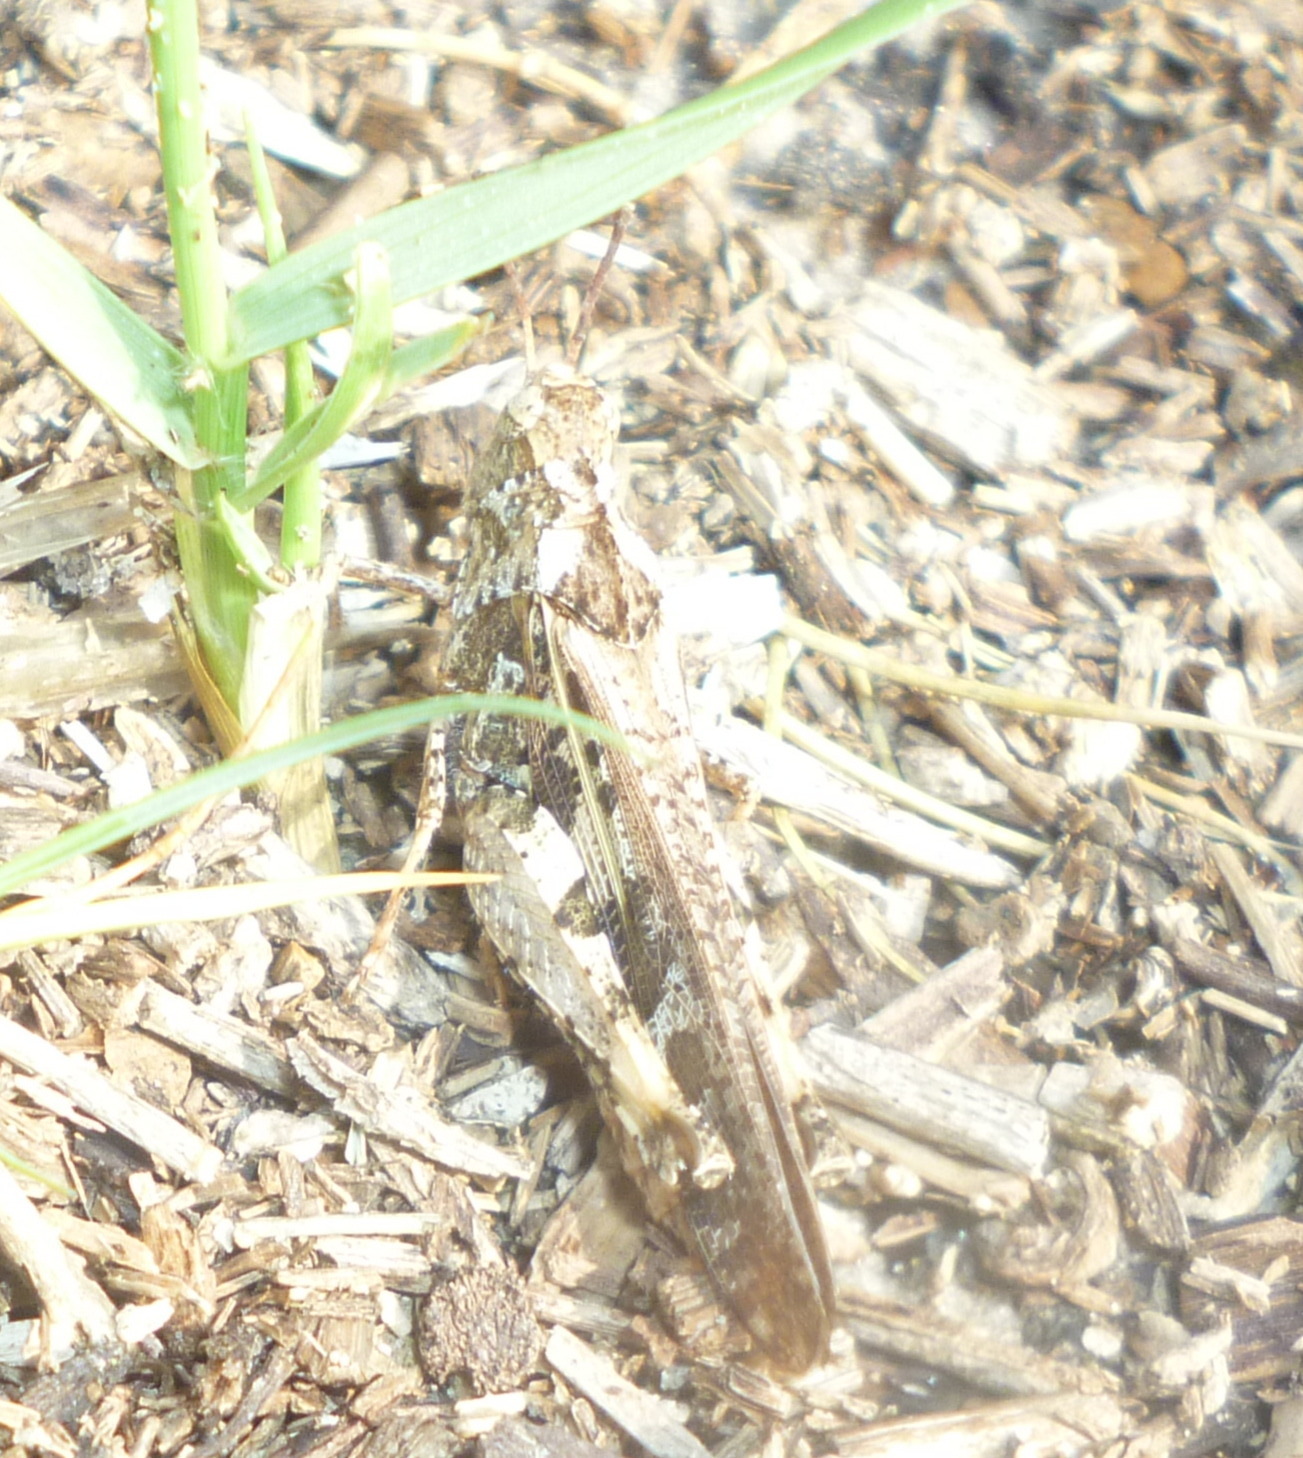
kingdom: Animalia
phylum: Arthropoda
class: Insecta
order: Orthoptera
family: Acrididae
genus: Chortophaga
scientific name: Chortophaga australior
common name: Southern green-striped grasshopper
